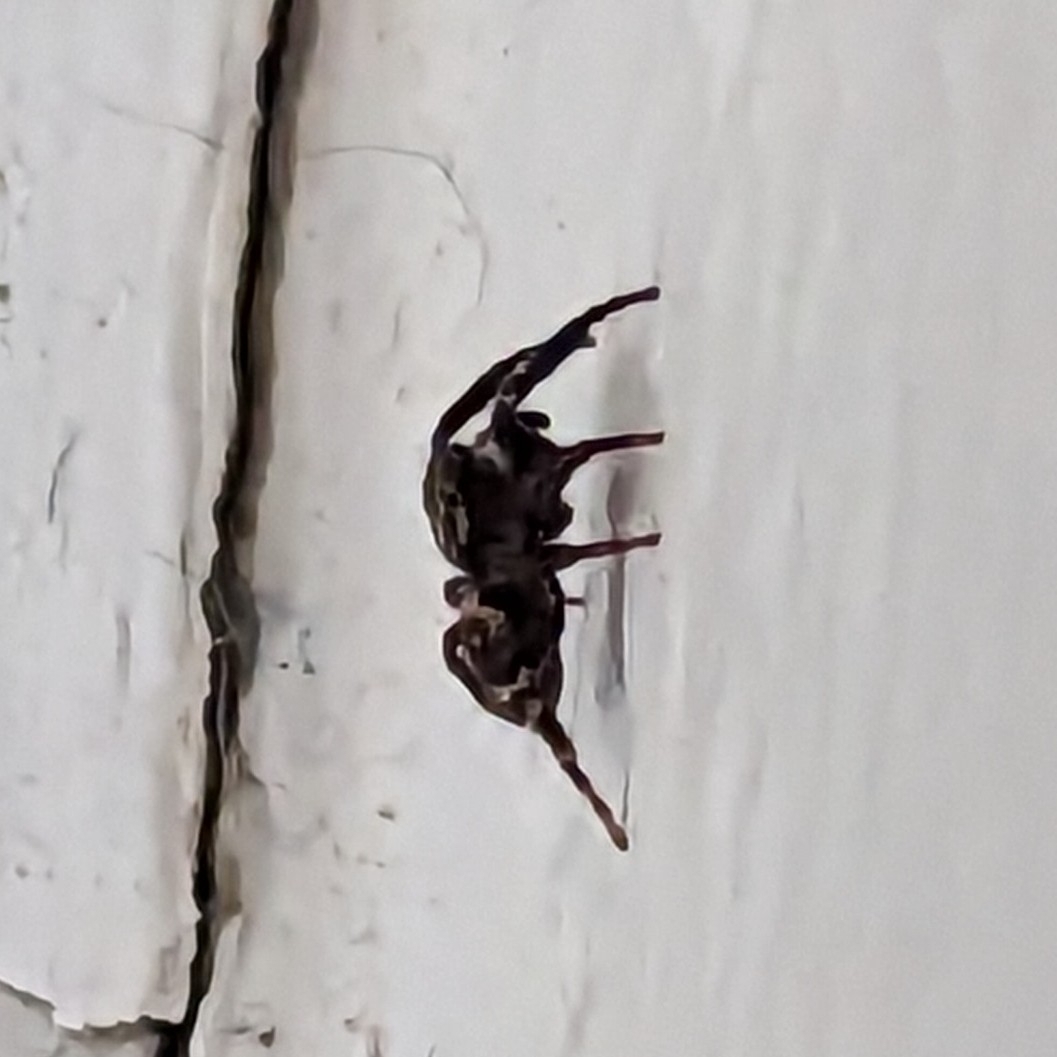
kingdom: Animalia
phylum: Arthropoda
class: Arachnida
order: Araneae
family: Salticidae
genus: Pseudeuophrys
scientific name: Pseudeuophrys erratica
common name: Jumping spider
